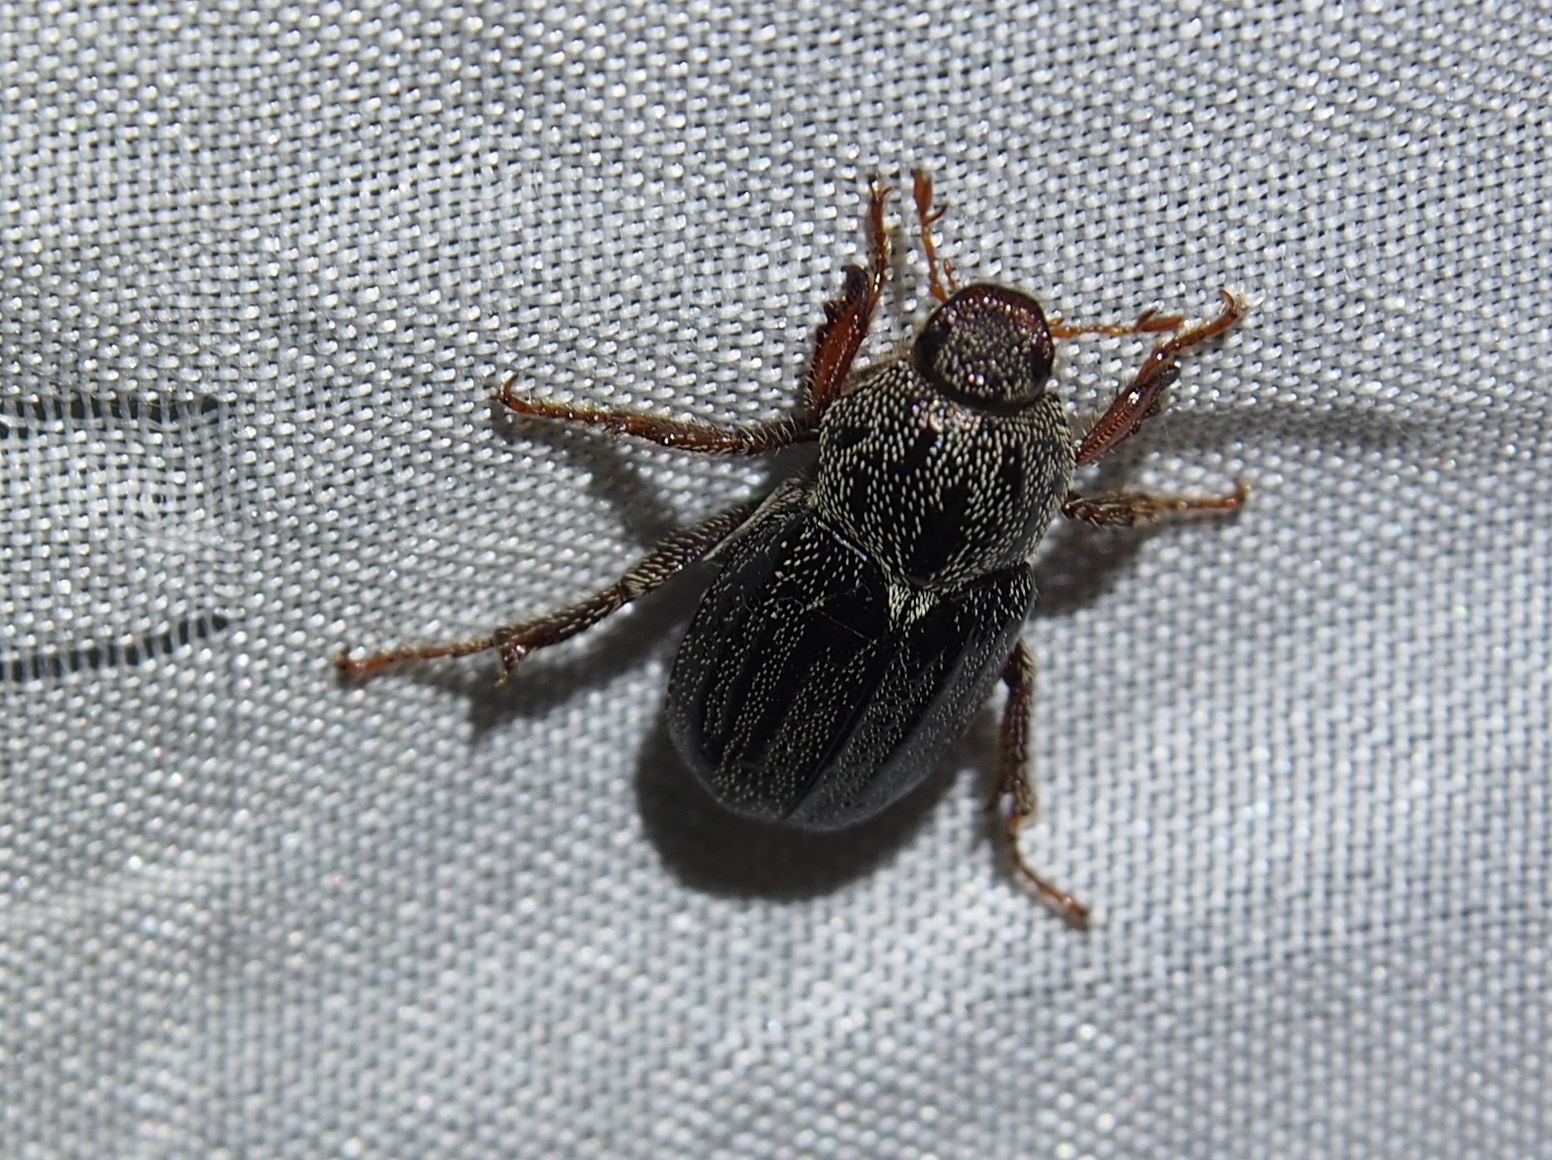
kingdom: Animalia
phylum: Arthropoda
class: Insecta
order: Coleoptera
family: Scarabaeidae
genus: Faula
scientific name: Faula centralis
